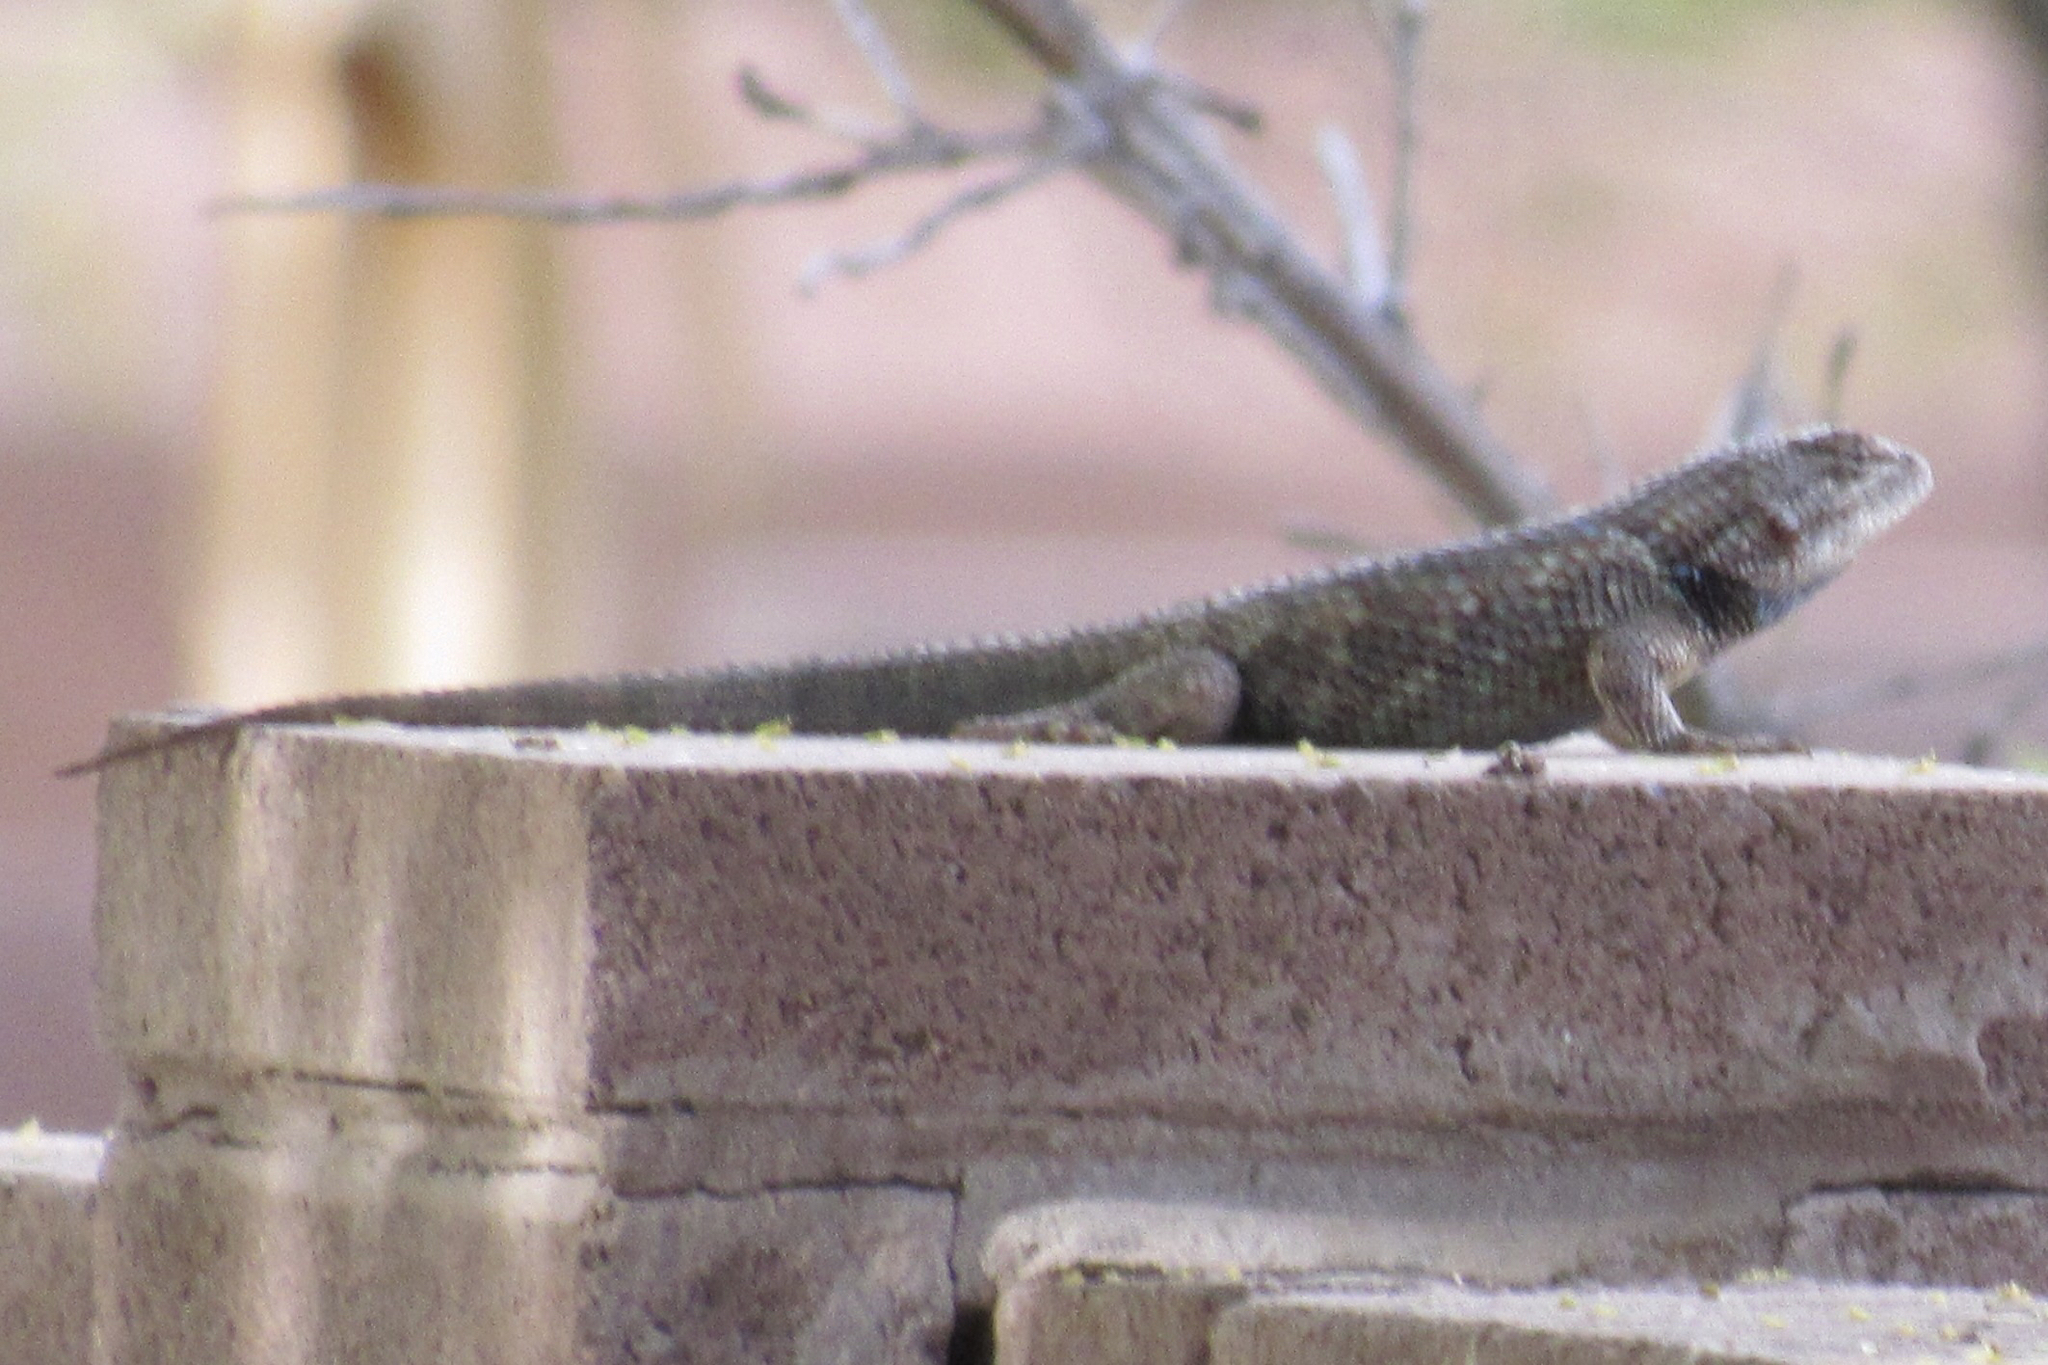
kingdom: Animalia
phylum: Chordata
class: Squamata
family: Phrynosomatidae
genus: Sceloporus
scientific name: Sceloporus magister
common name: Desert spiny lizard
